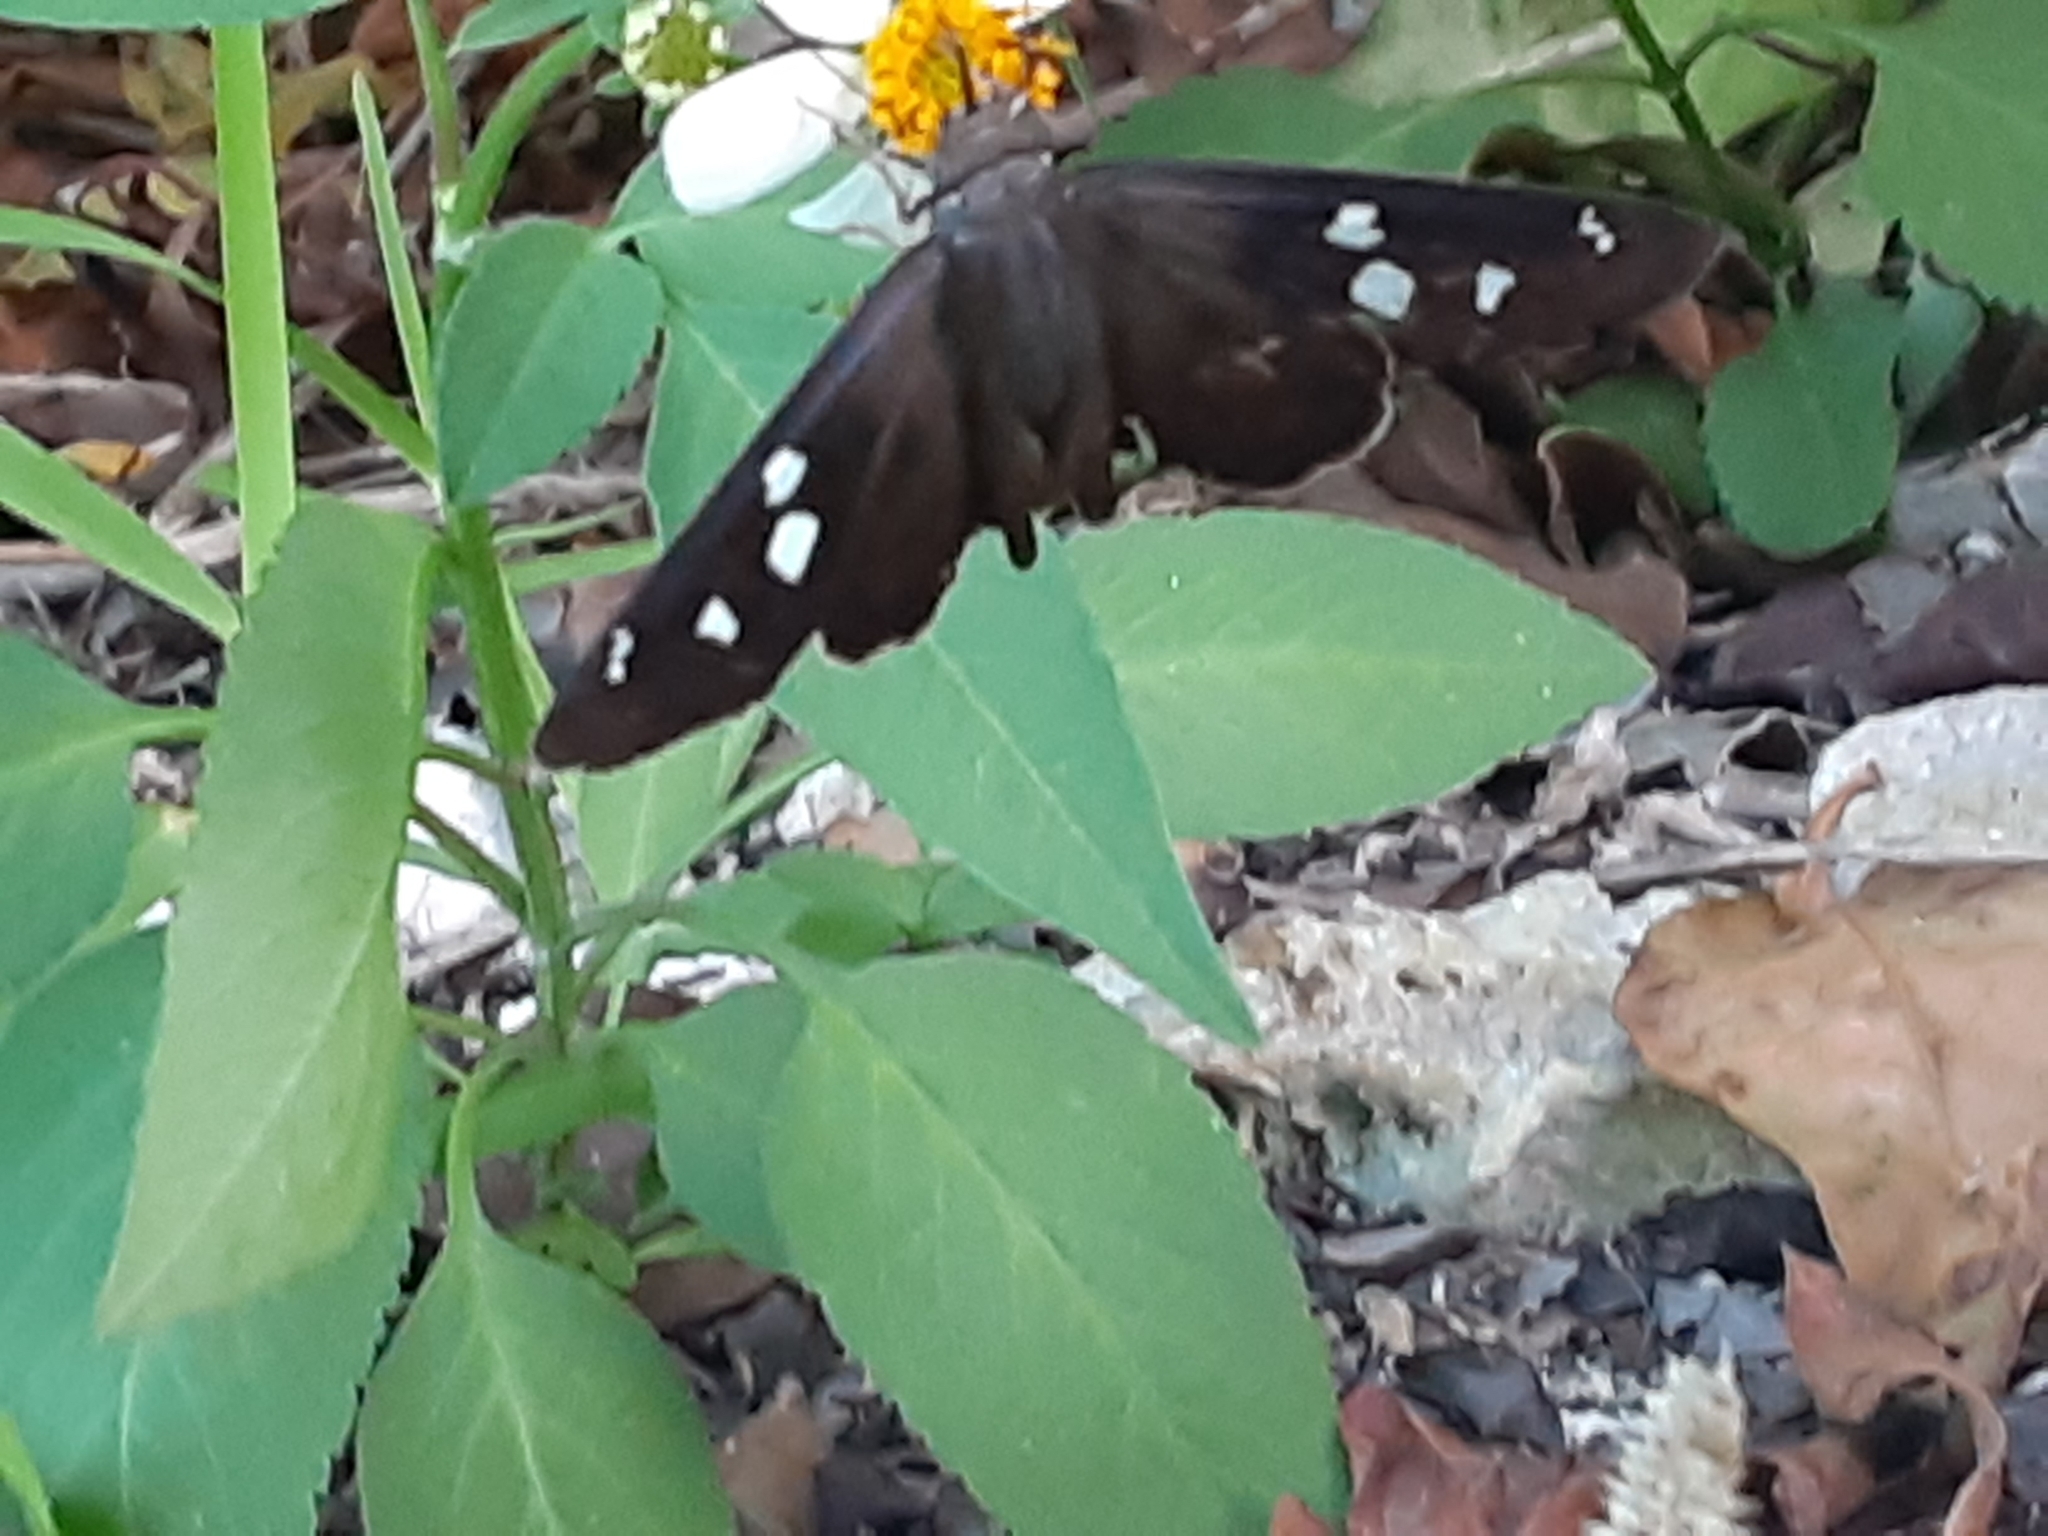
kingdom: Animalia
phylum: Arthropoda
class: Insecta
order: Lepidoptera
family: Hesperiidae
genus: Polygonus
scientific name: Polygonus leo
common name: Hammoch skipper
